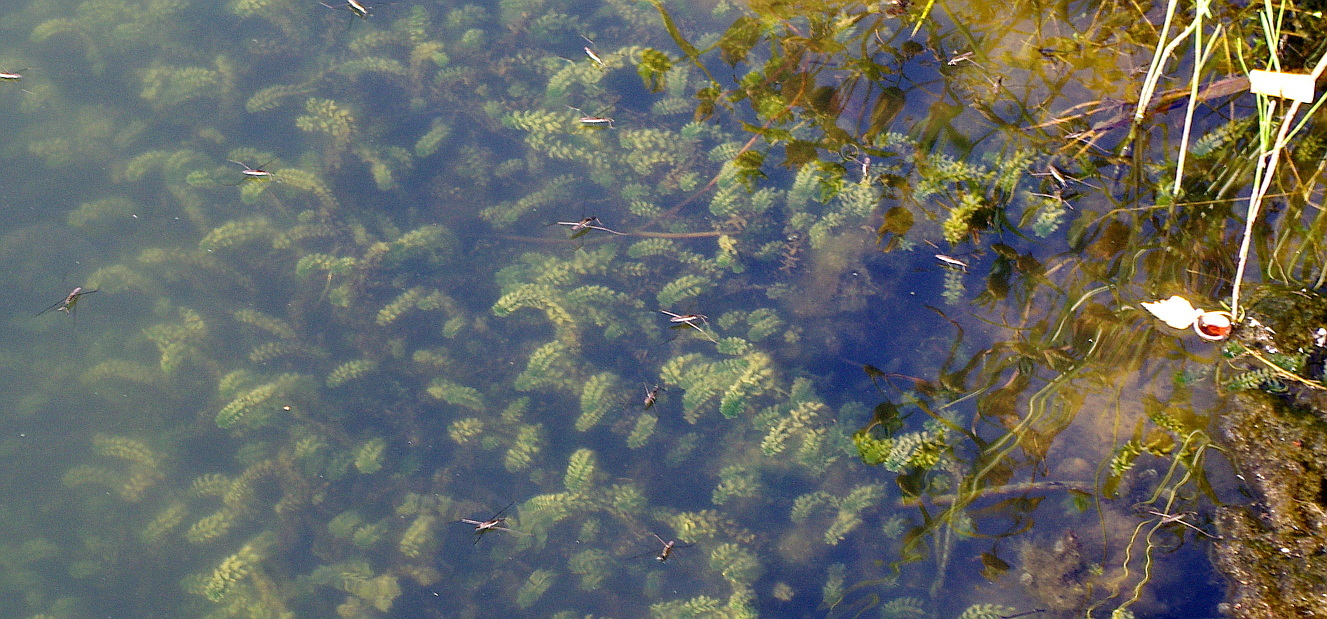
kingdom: Plantae
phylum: Tracheophyta
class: Liliopsida
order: Alismatales
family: Hydrocharitaceae
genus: Elodea
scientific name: Elodea canadensis
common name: Canadian waterweed
